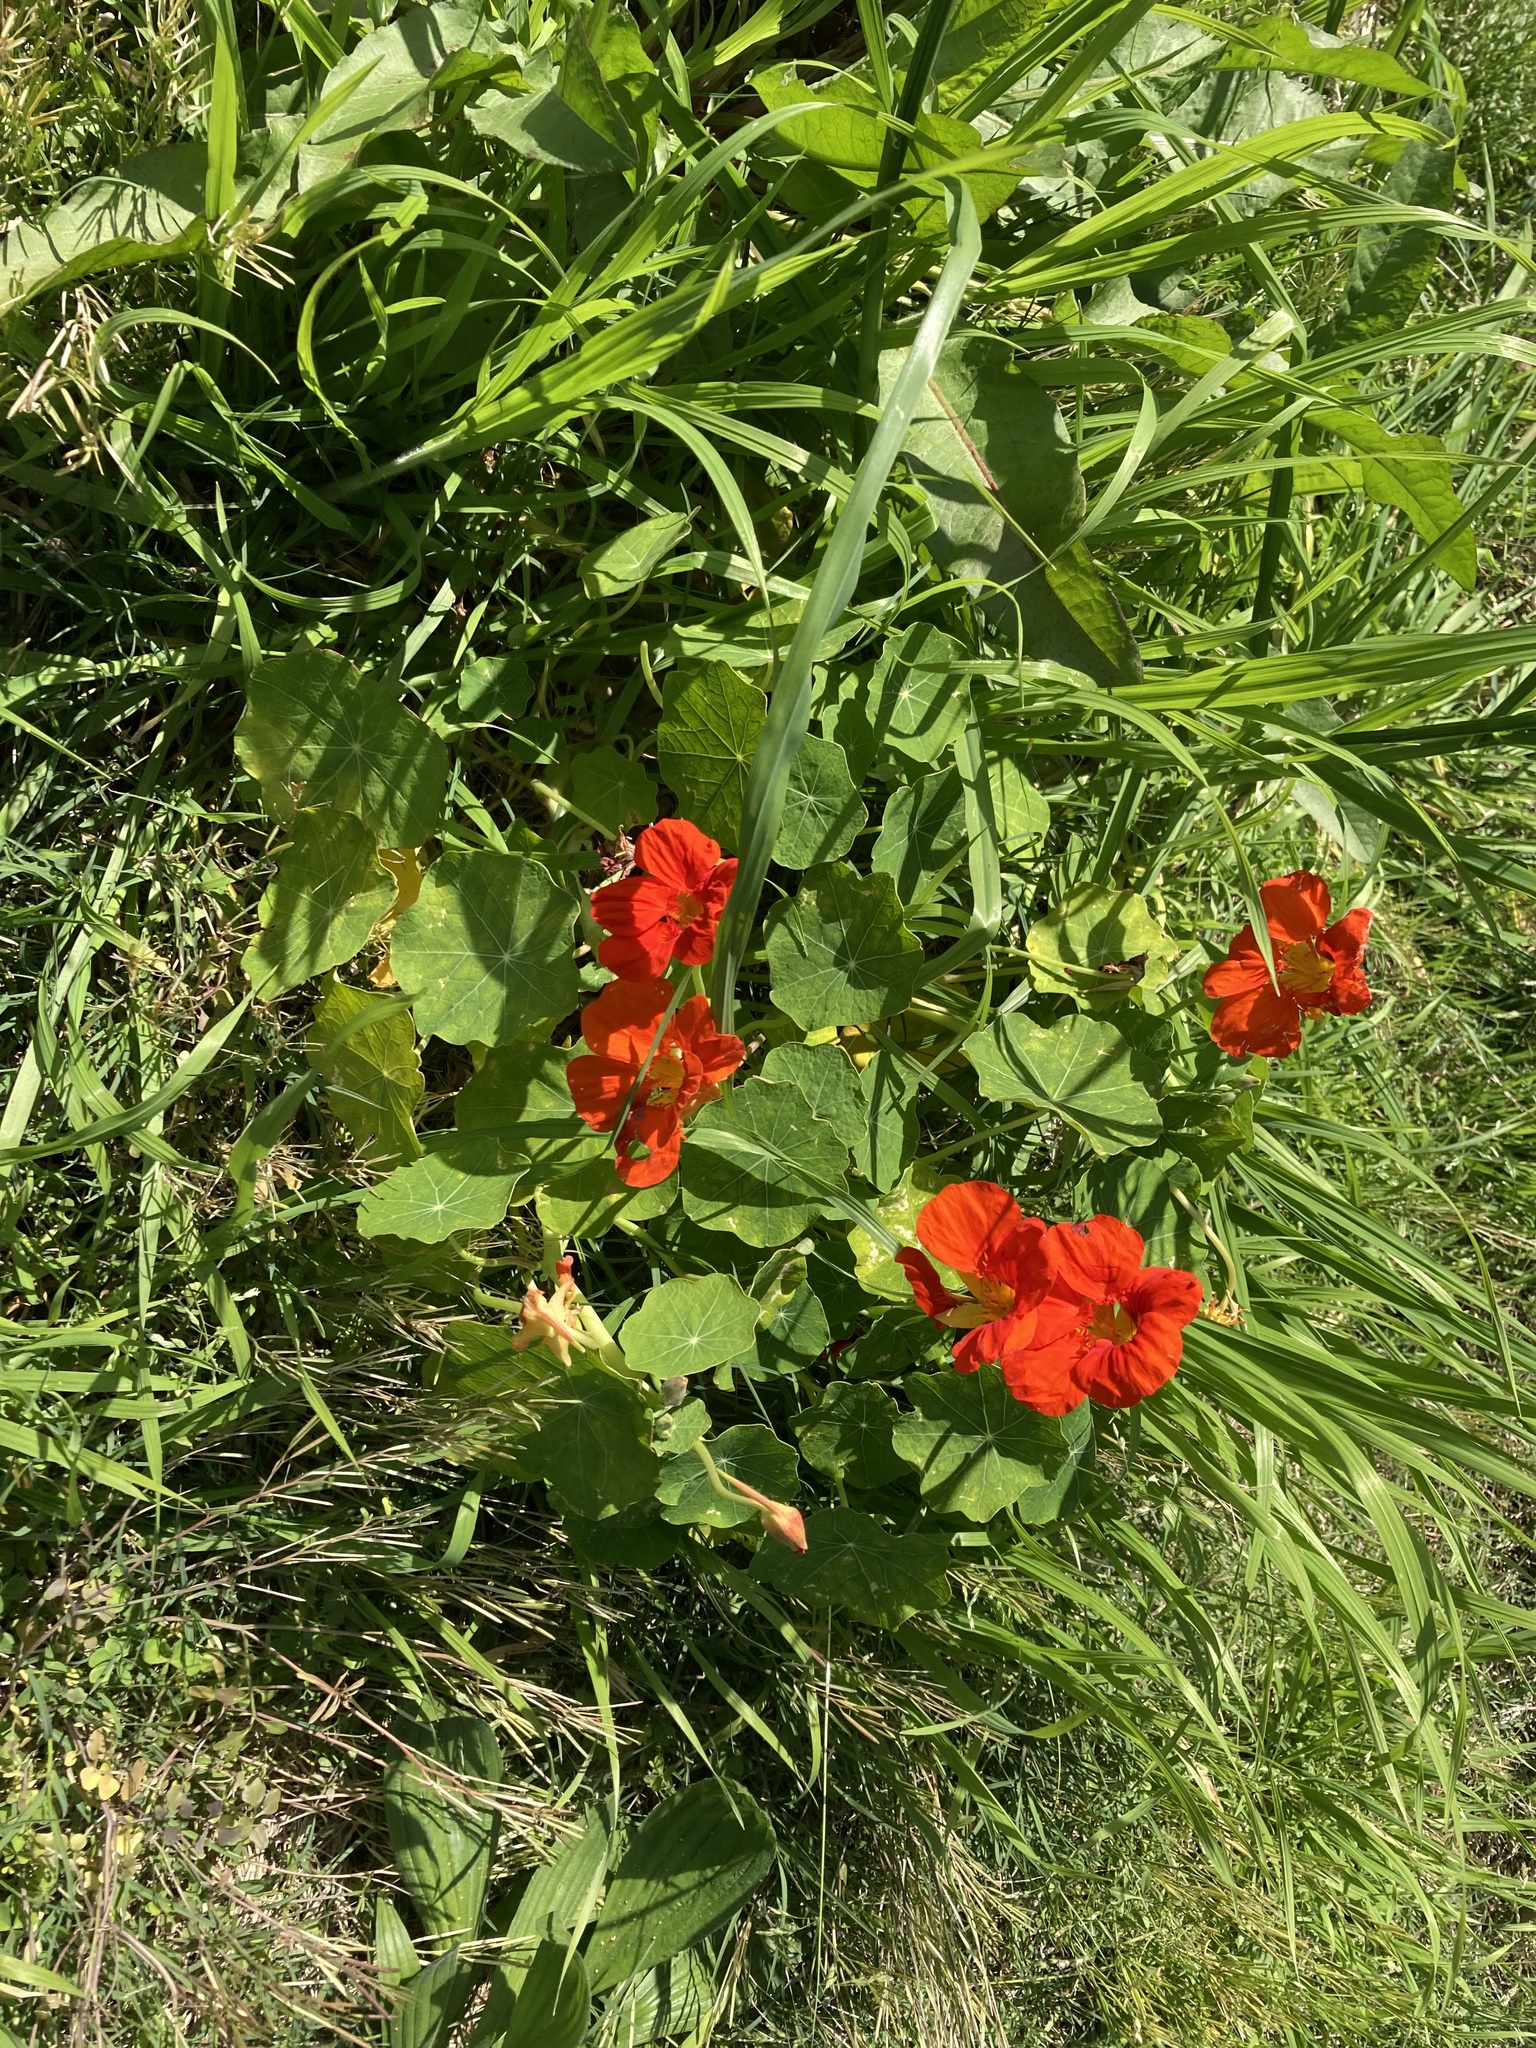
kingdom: Plantae
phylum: Tracheophyta
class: Magnoliopsida
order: Brassicales
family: Tropaeolaceae
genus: Tropaeolum
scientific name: Tropaeolum majus
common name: Nasturtium
